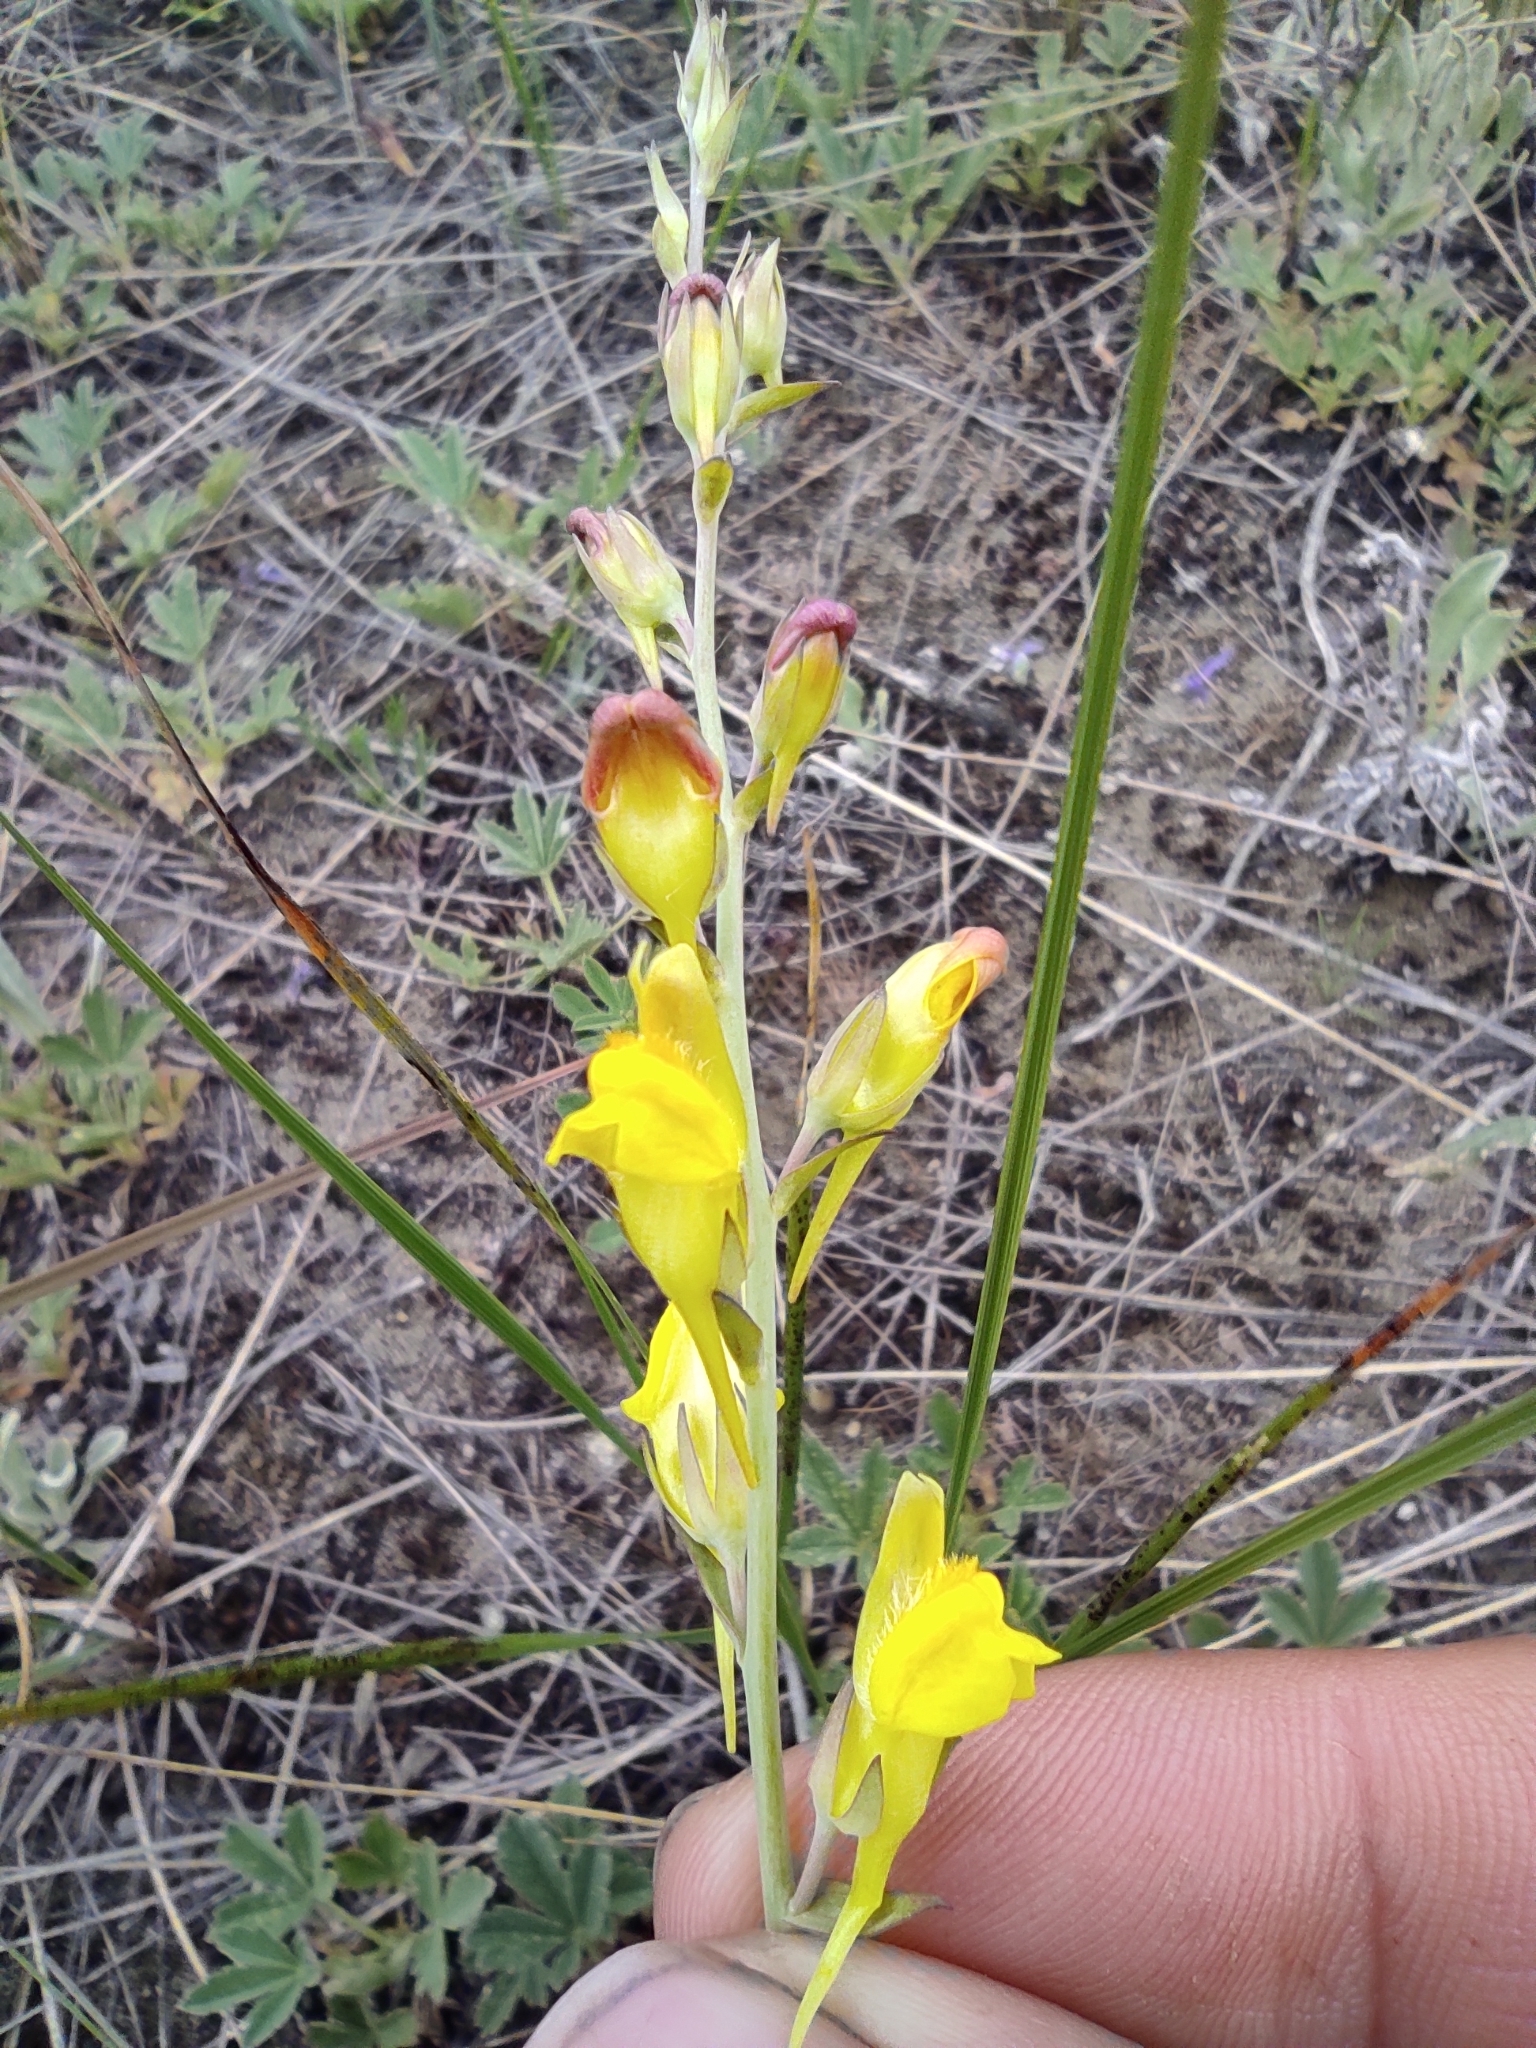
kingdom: Plantae
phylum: Tracheophyta
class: Magnoliopsida
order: Lamiales
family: Plantaginaceae
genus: Linaria
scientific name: Linaria genistifolia
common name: Broomleaf toadflax
